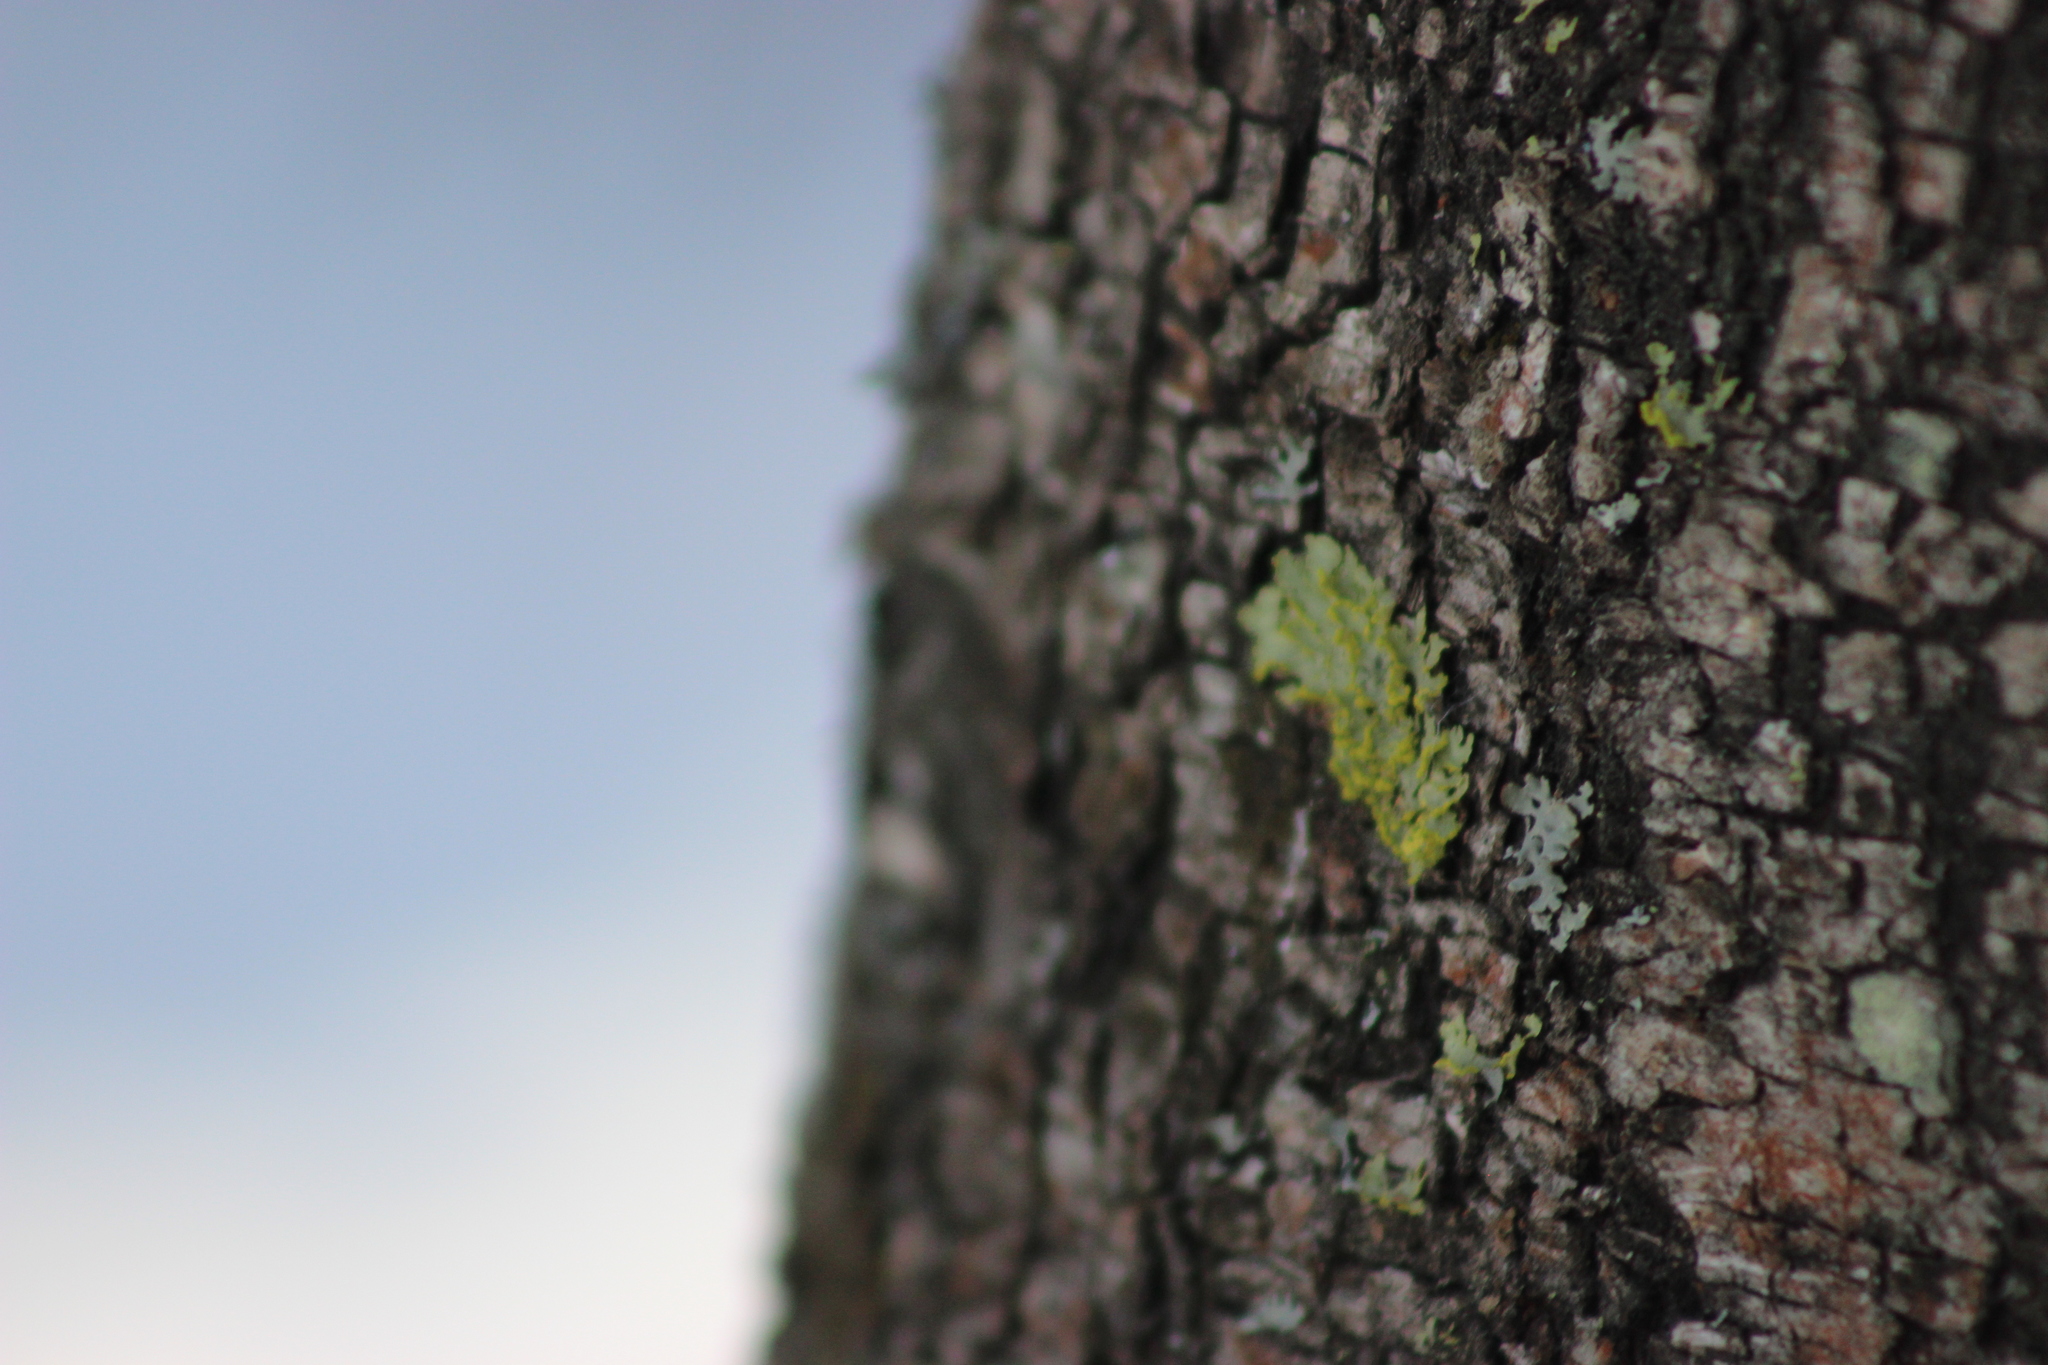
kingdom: Fungi
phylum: Ascomycota
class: Lecanoromycetes
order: Lecanorales
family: Parmeliaceae
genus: Vulpicida
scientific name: Vulpicida pinastri
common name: Powdered sunshine lichen
